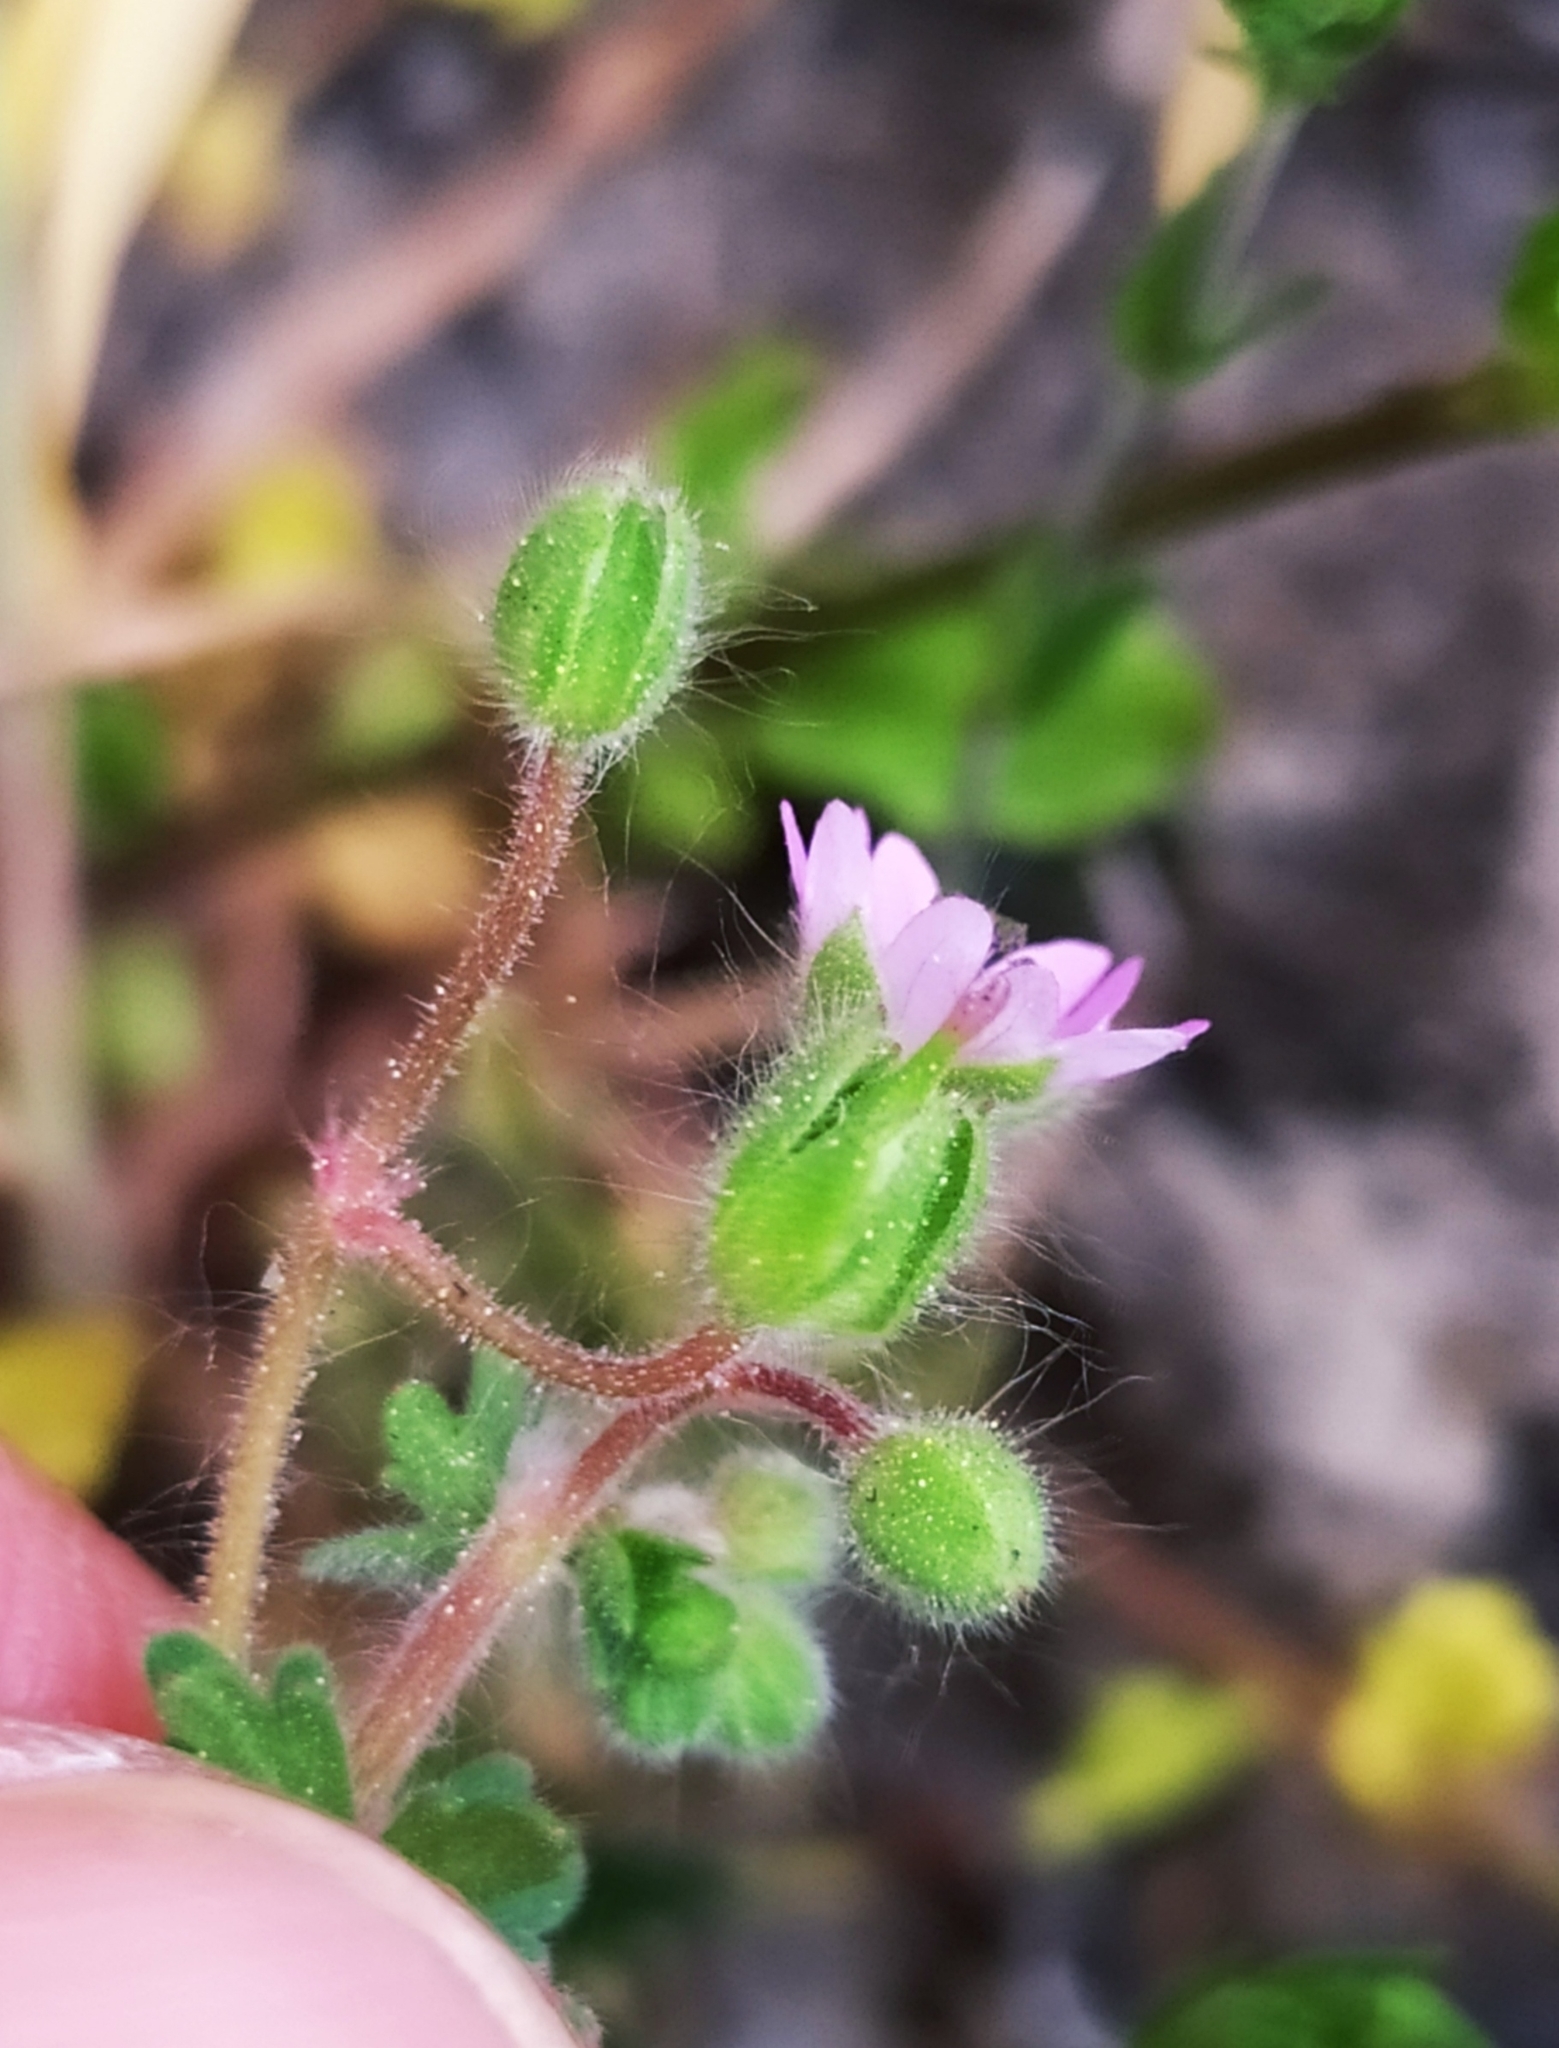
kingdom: Plantae
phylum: Tracheophyta
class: Magnoliopsida
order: Geraniales
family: Geraniaceae
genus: Geranium
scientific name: Geranium molle
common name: Dove's-foot crane's-bill
